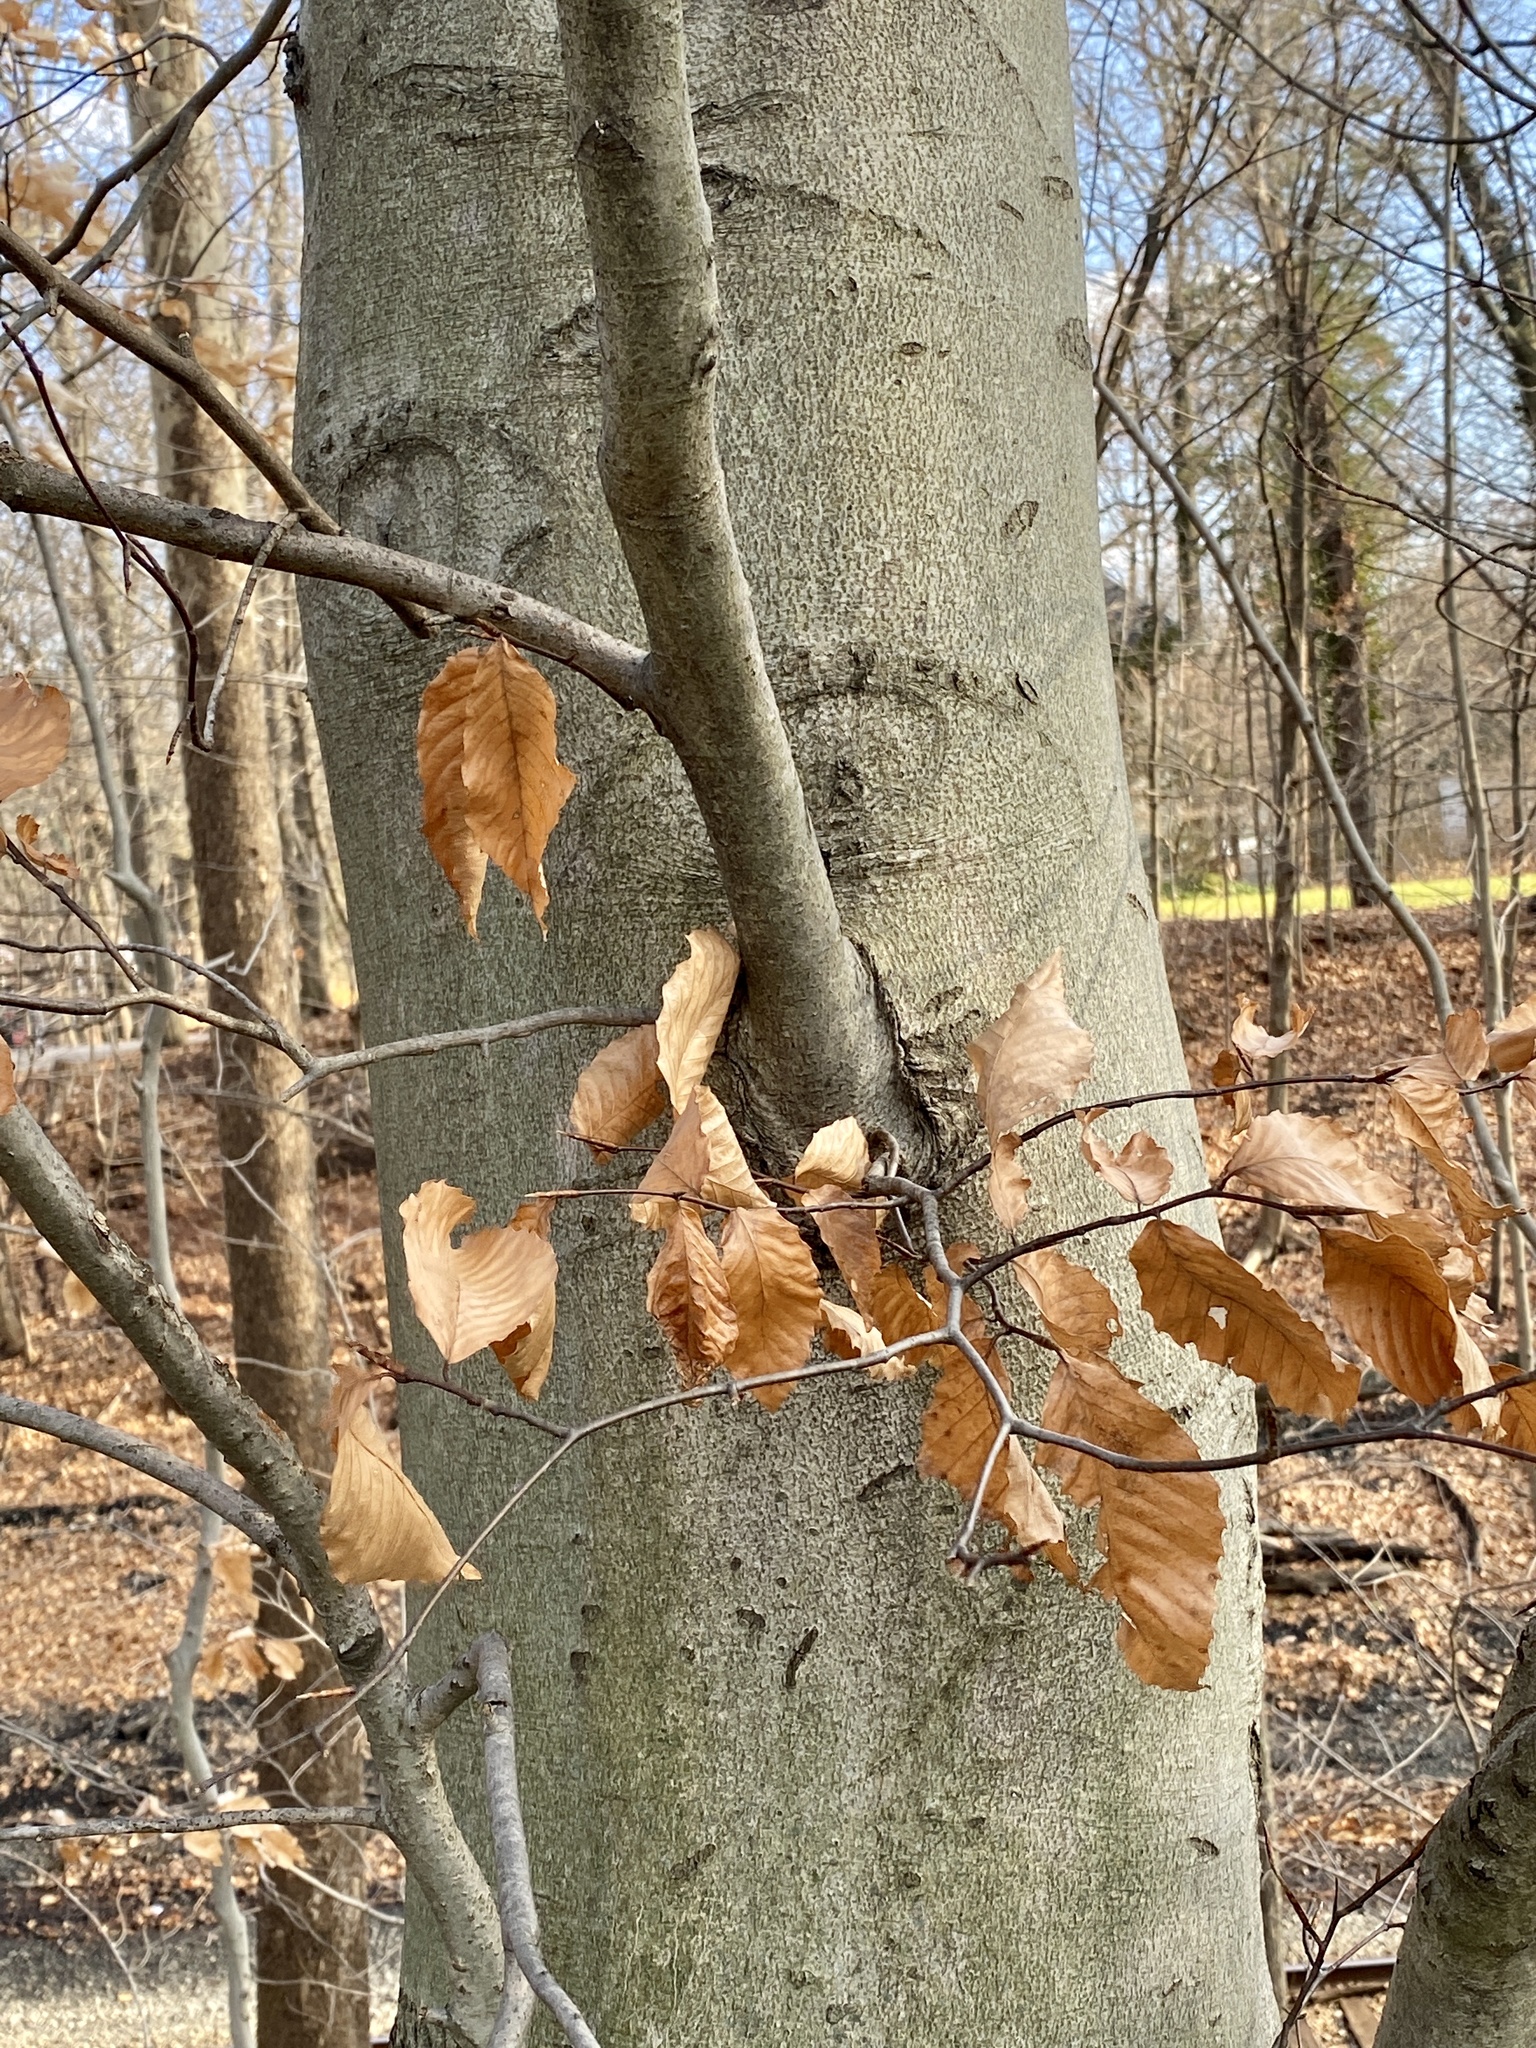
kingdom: Plantae
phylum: Tracheophyta
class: Magnoliopsida
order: Fagales
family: Fagaceae
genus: Fagus
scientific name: Fagus grandifolia
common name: American beech
